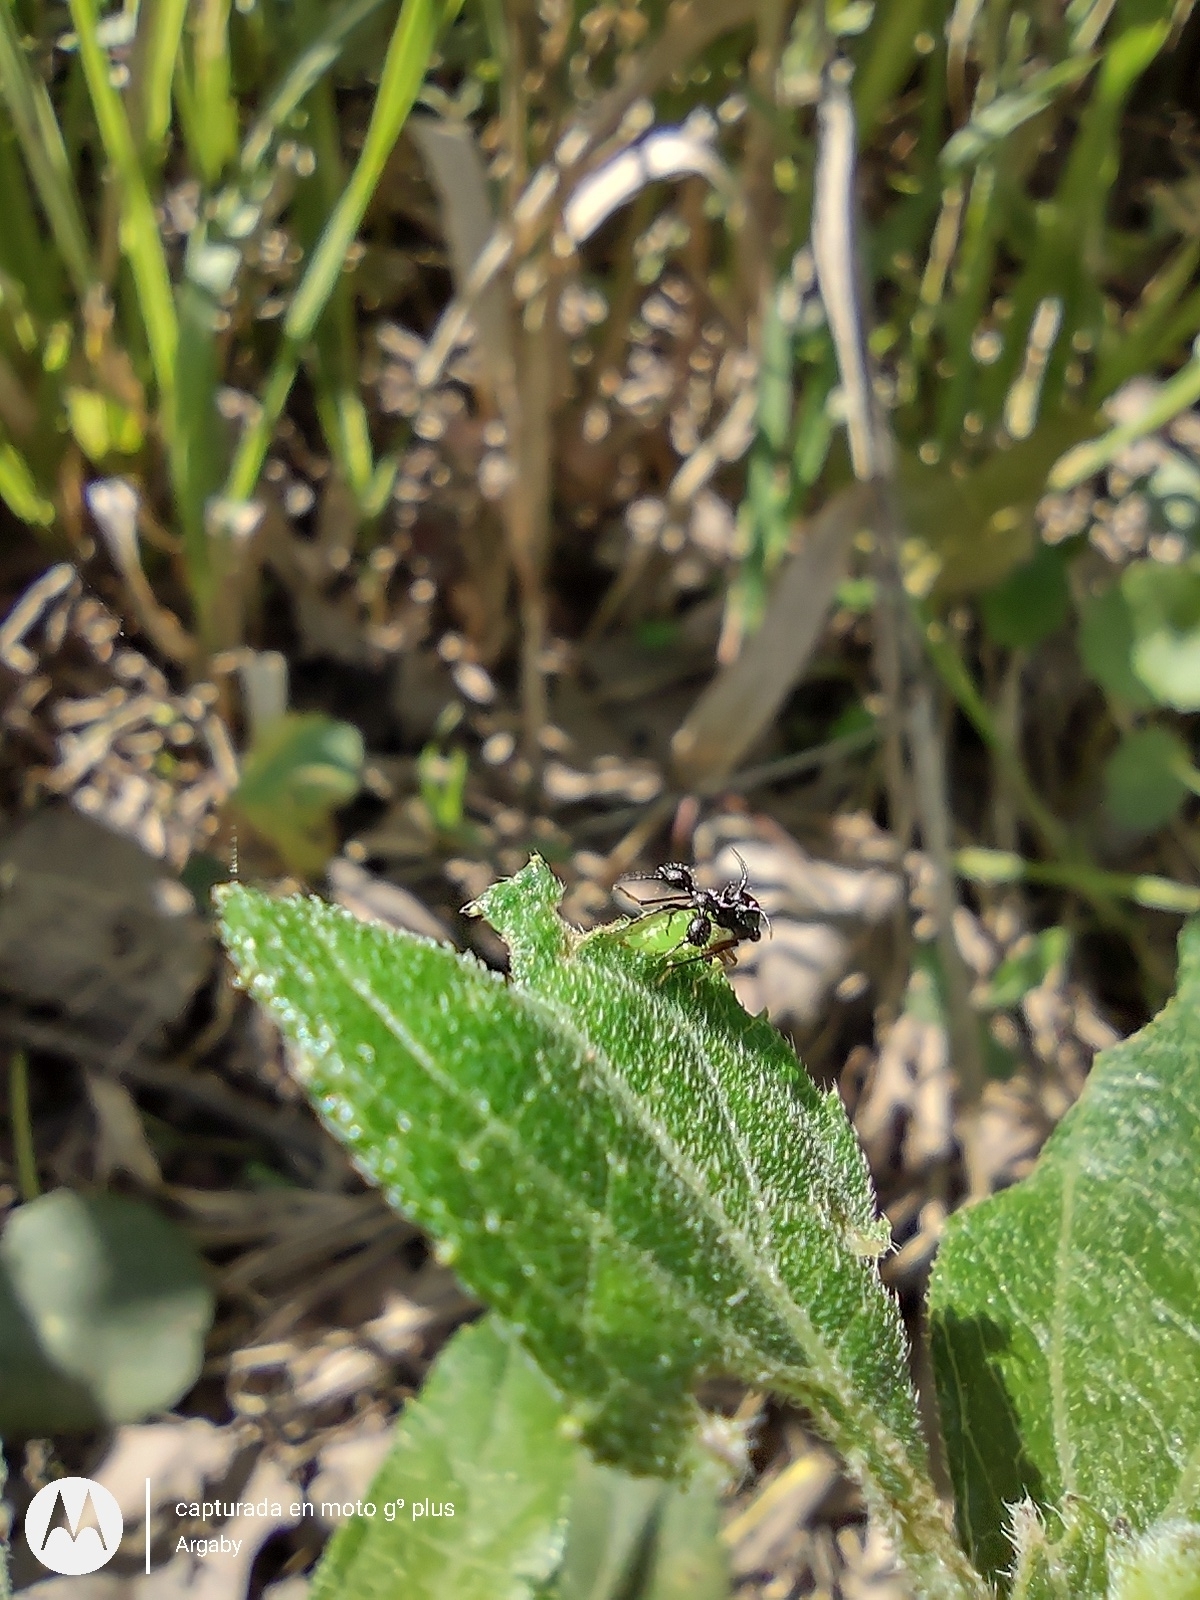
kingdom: Animalia
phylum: Arthropoda
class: Insecta
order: Hemiptera
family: Membracidae
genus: Cyphonia
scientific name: Cyphonia clavata
